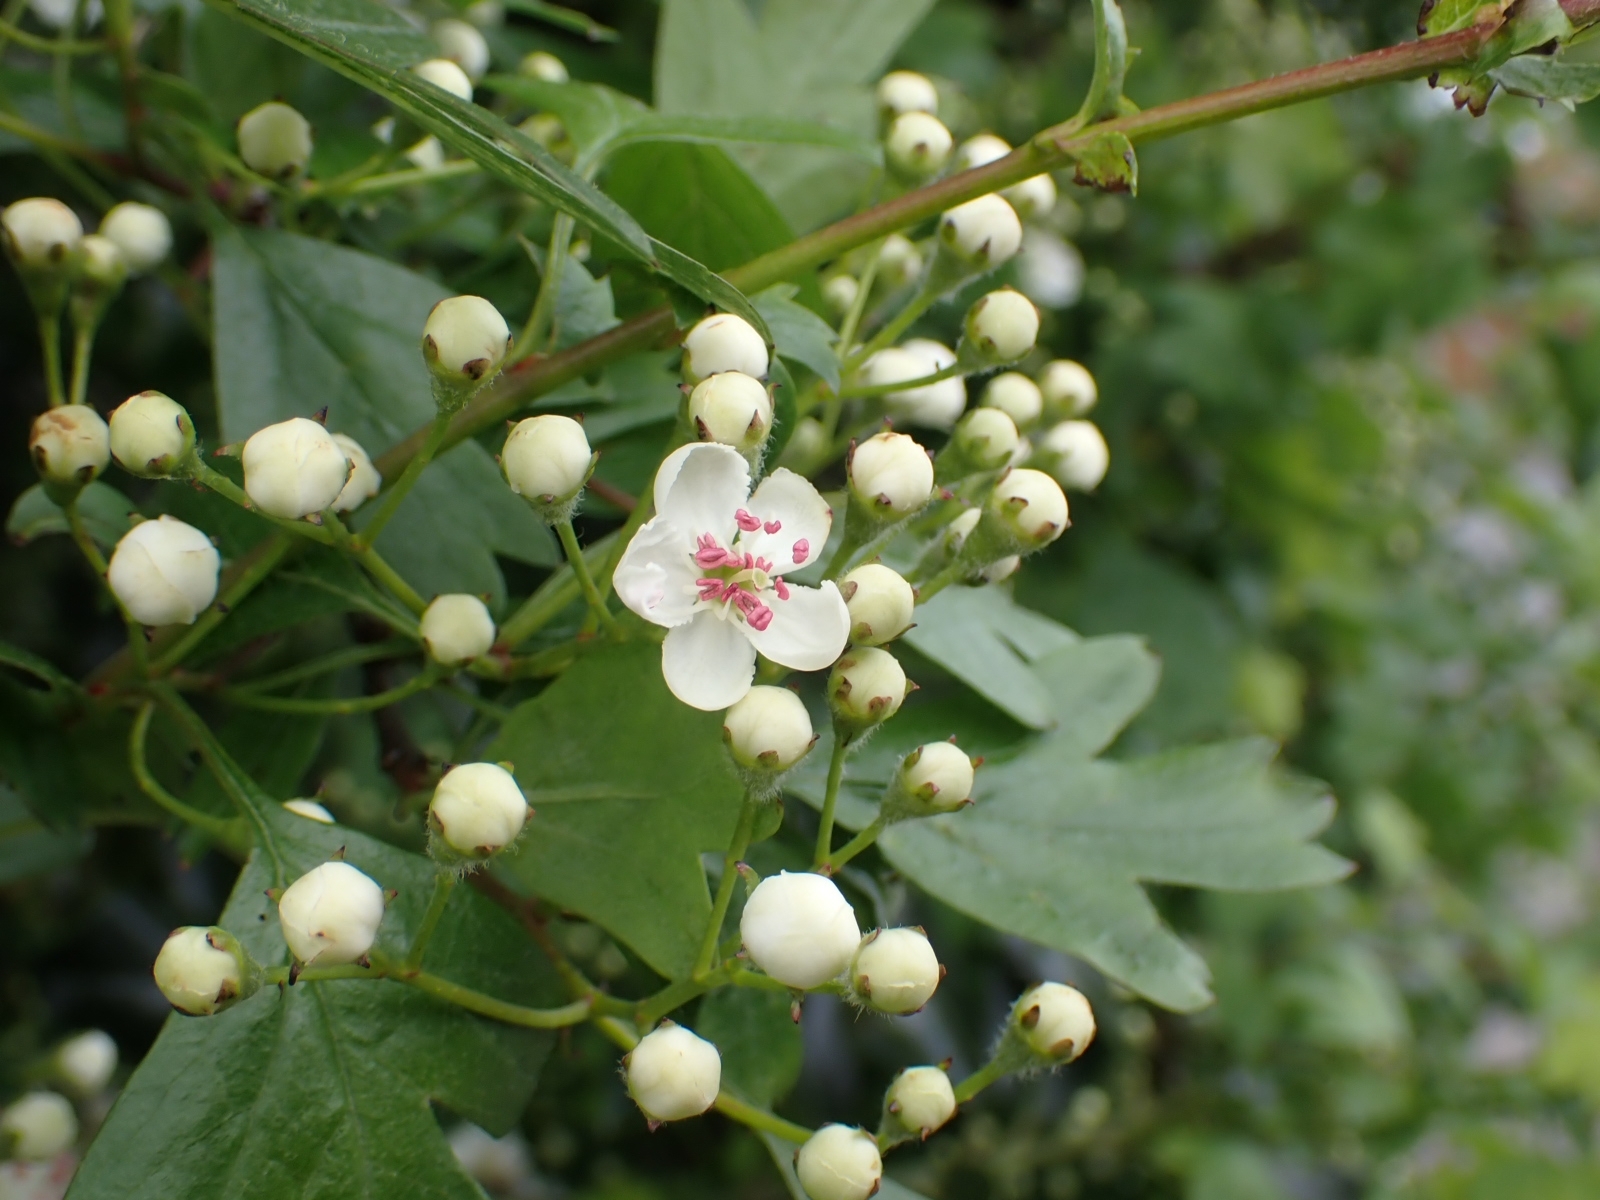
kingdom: Plantae
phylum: Tracheophyta
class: Magnoliopsida
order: Rosales
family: Rosaceae
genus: Crataegus
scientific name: Crataegus monogyna
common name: Hawthorn
